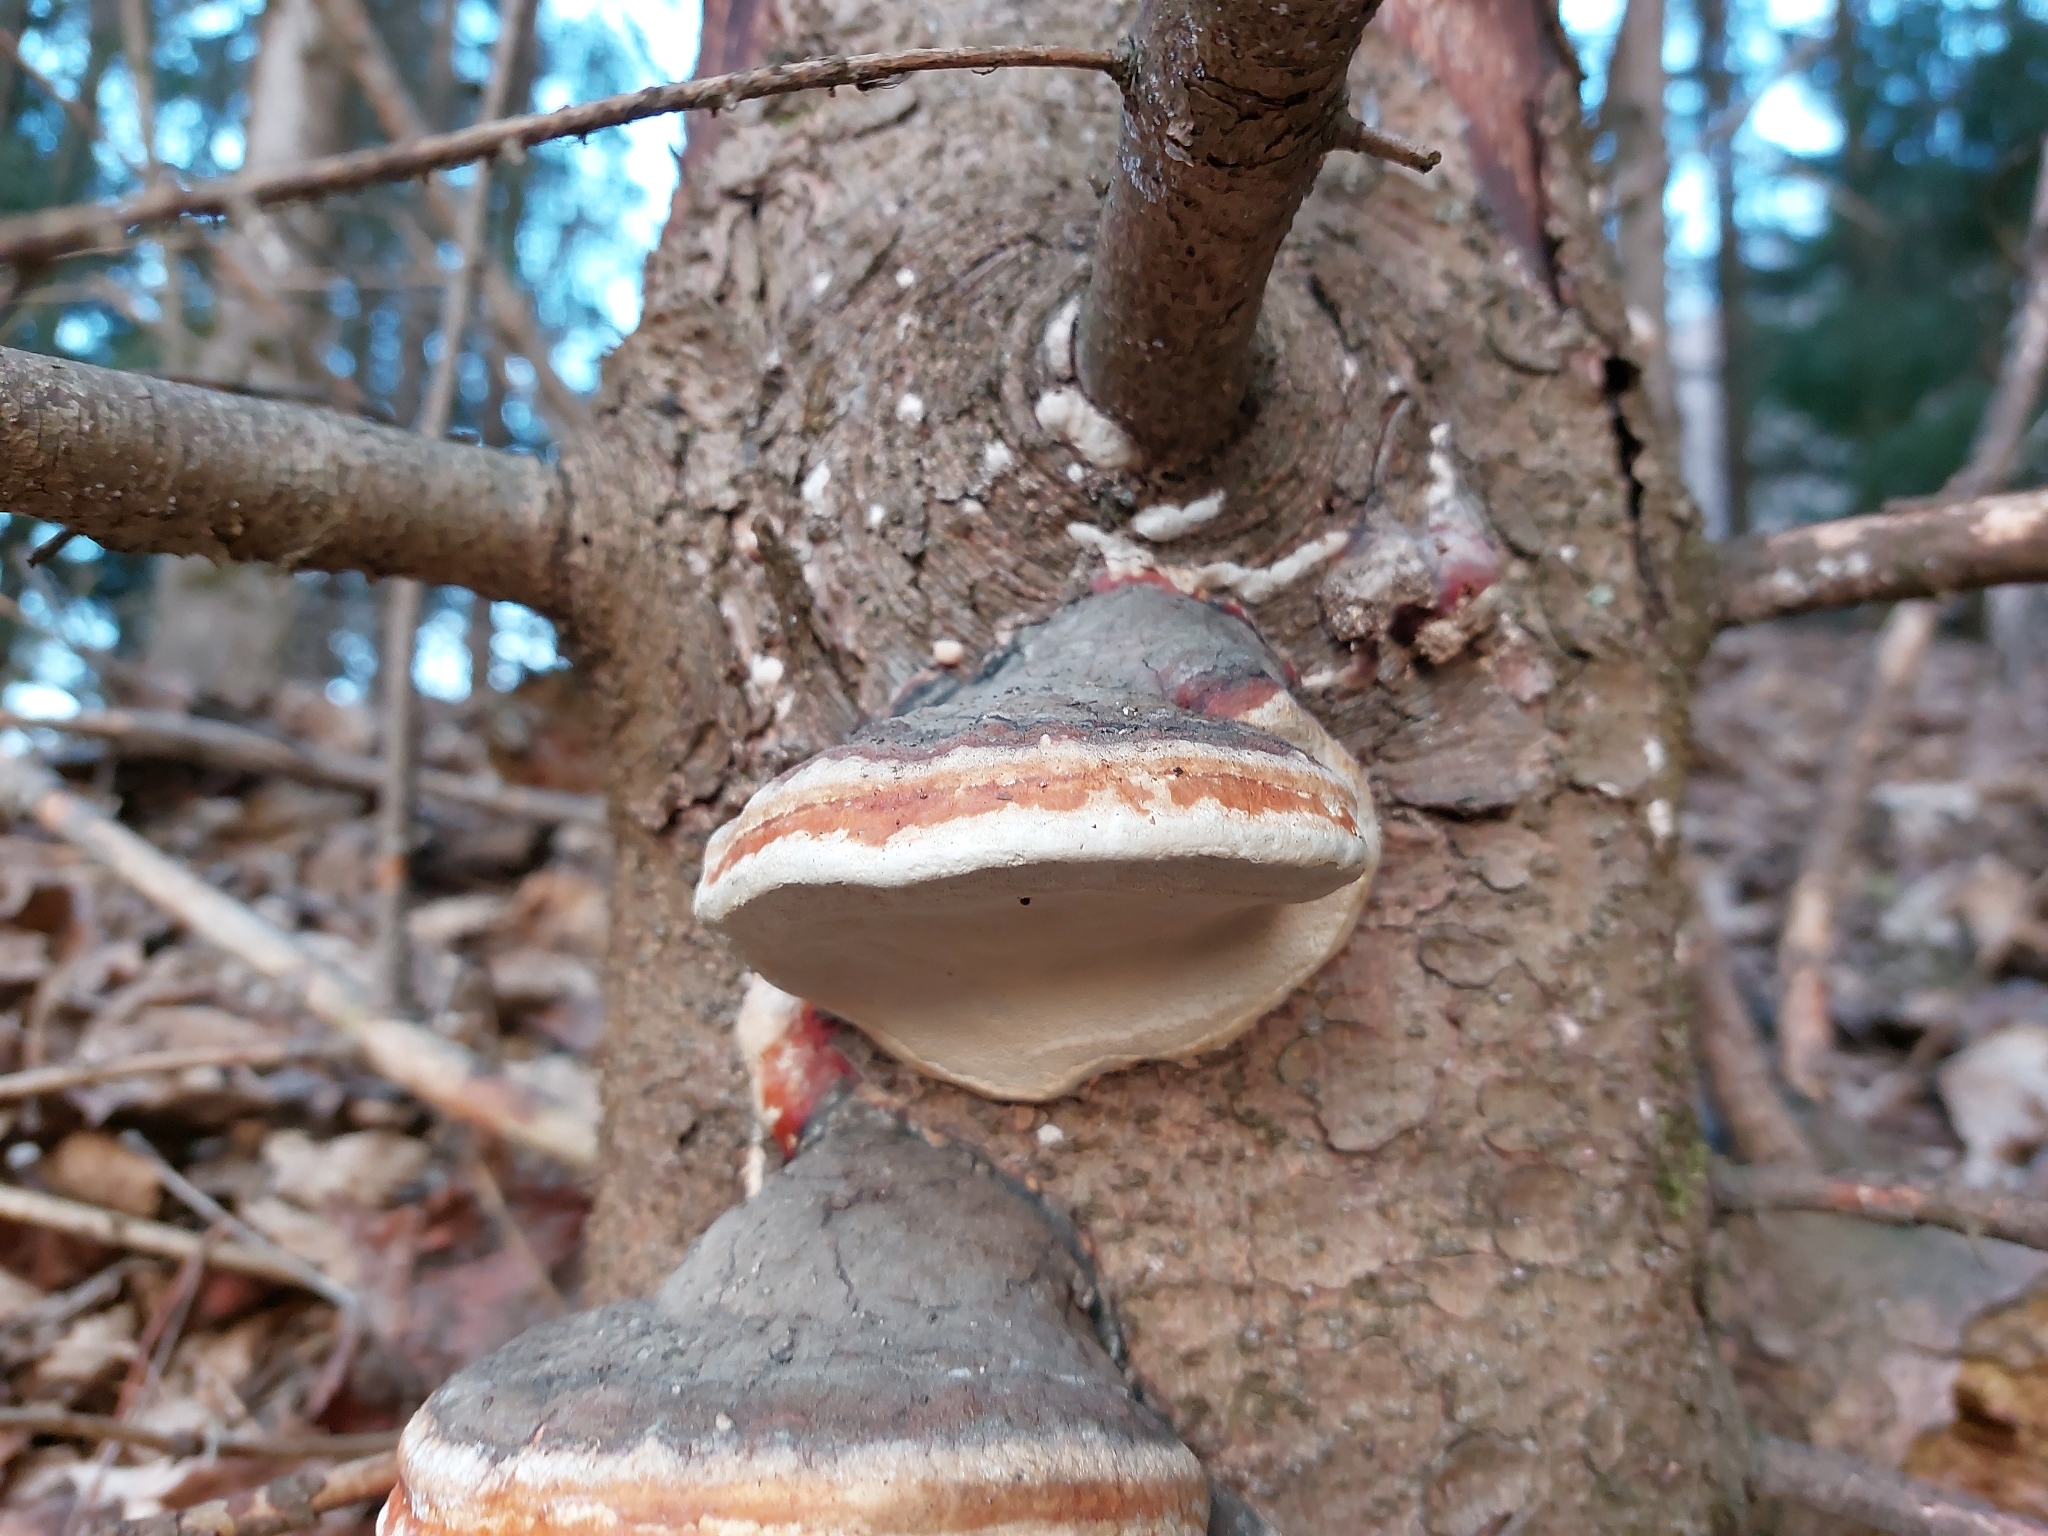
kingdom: Fungi
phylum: Basidiomycota
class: Agaricomycetes
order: Polyporales
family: Fomitopsidaceae
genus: Fomitopsis
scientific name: Fomitopsis pinicola
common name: Red-belted bracket
